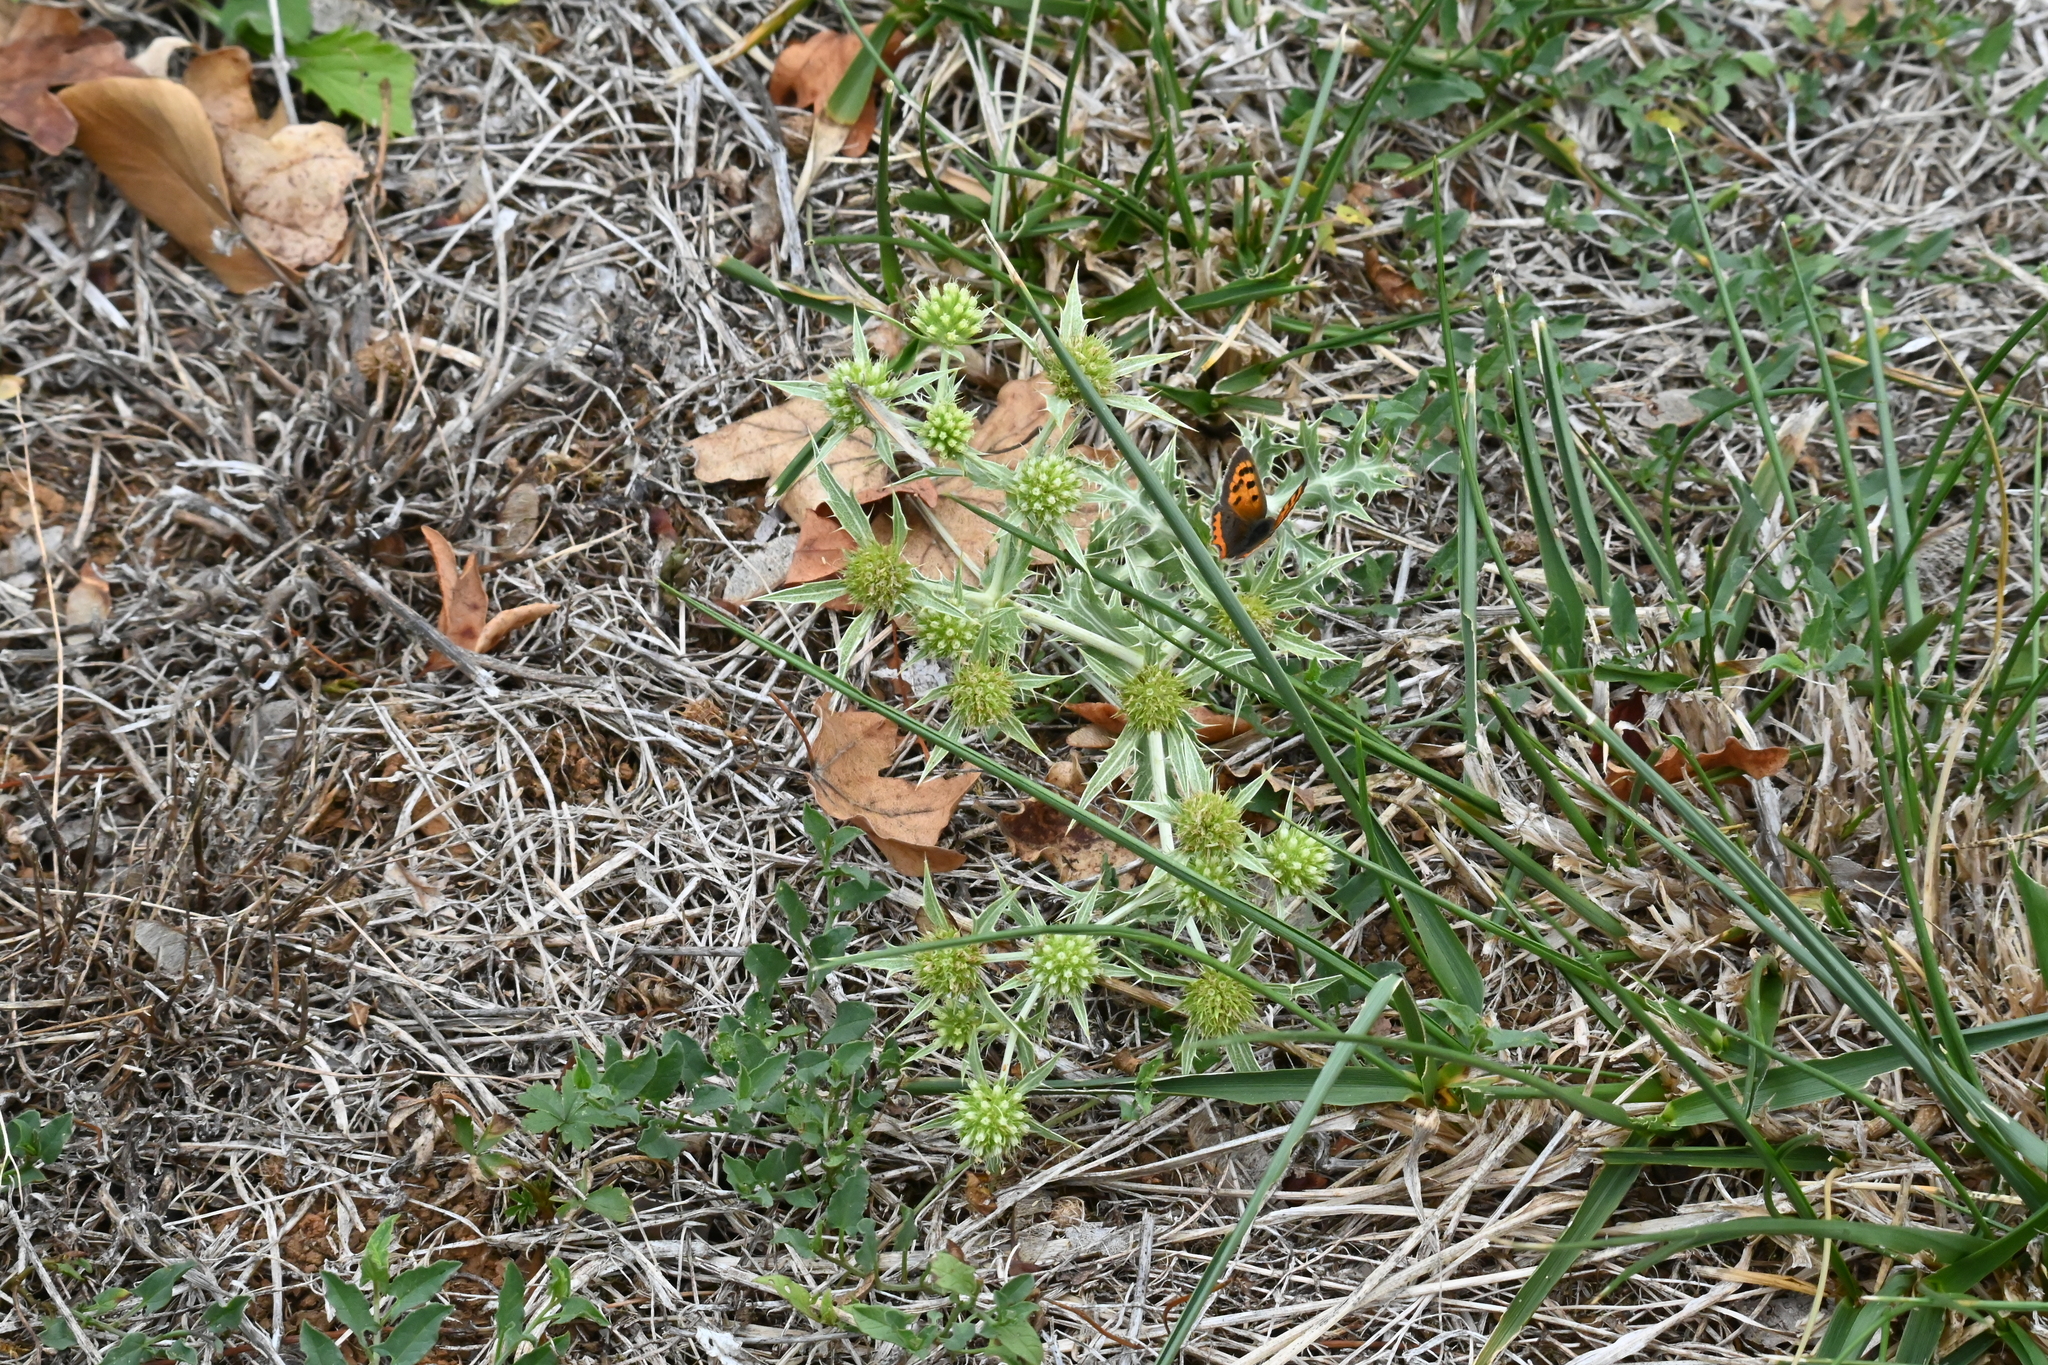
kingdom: Plantae
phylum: Tracheophyta
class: Magnoliopsida
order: Apiales
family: Apiaceae
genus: Eryngium
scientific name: Eryngium campestre
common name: Field eryngo
